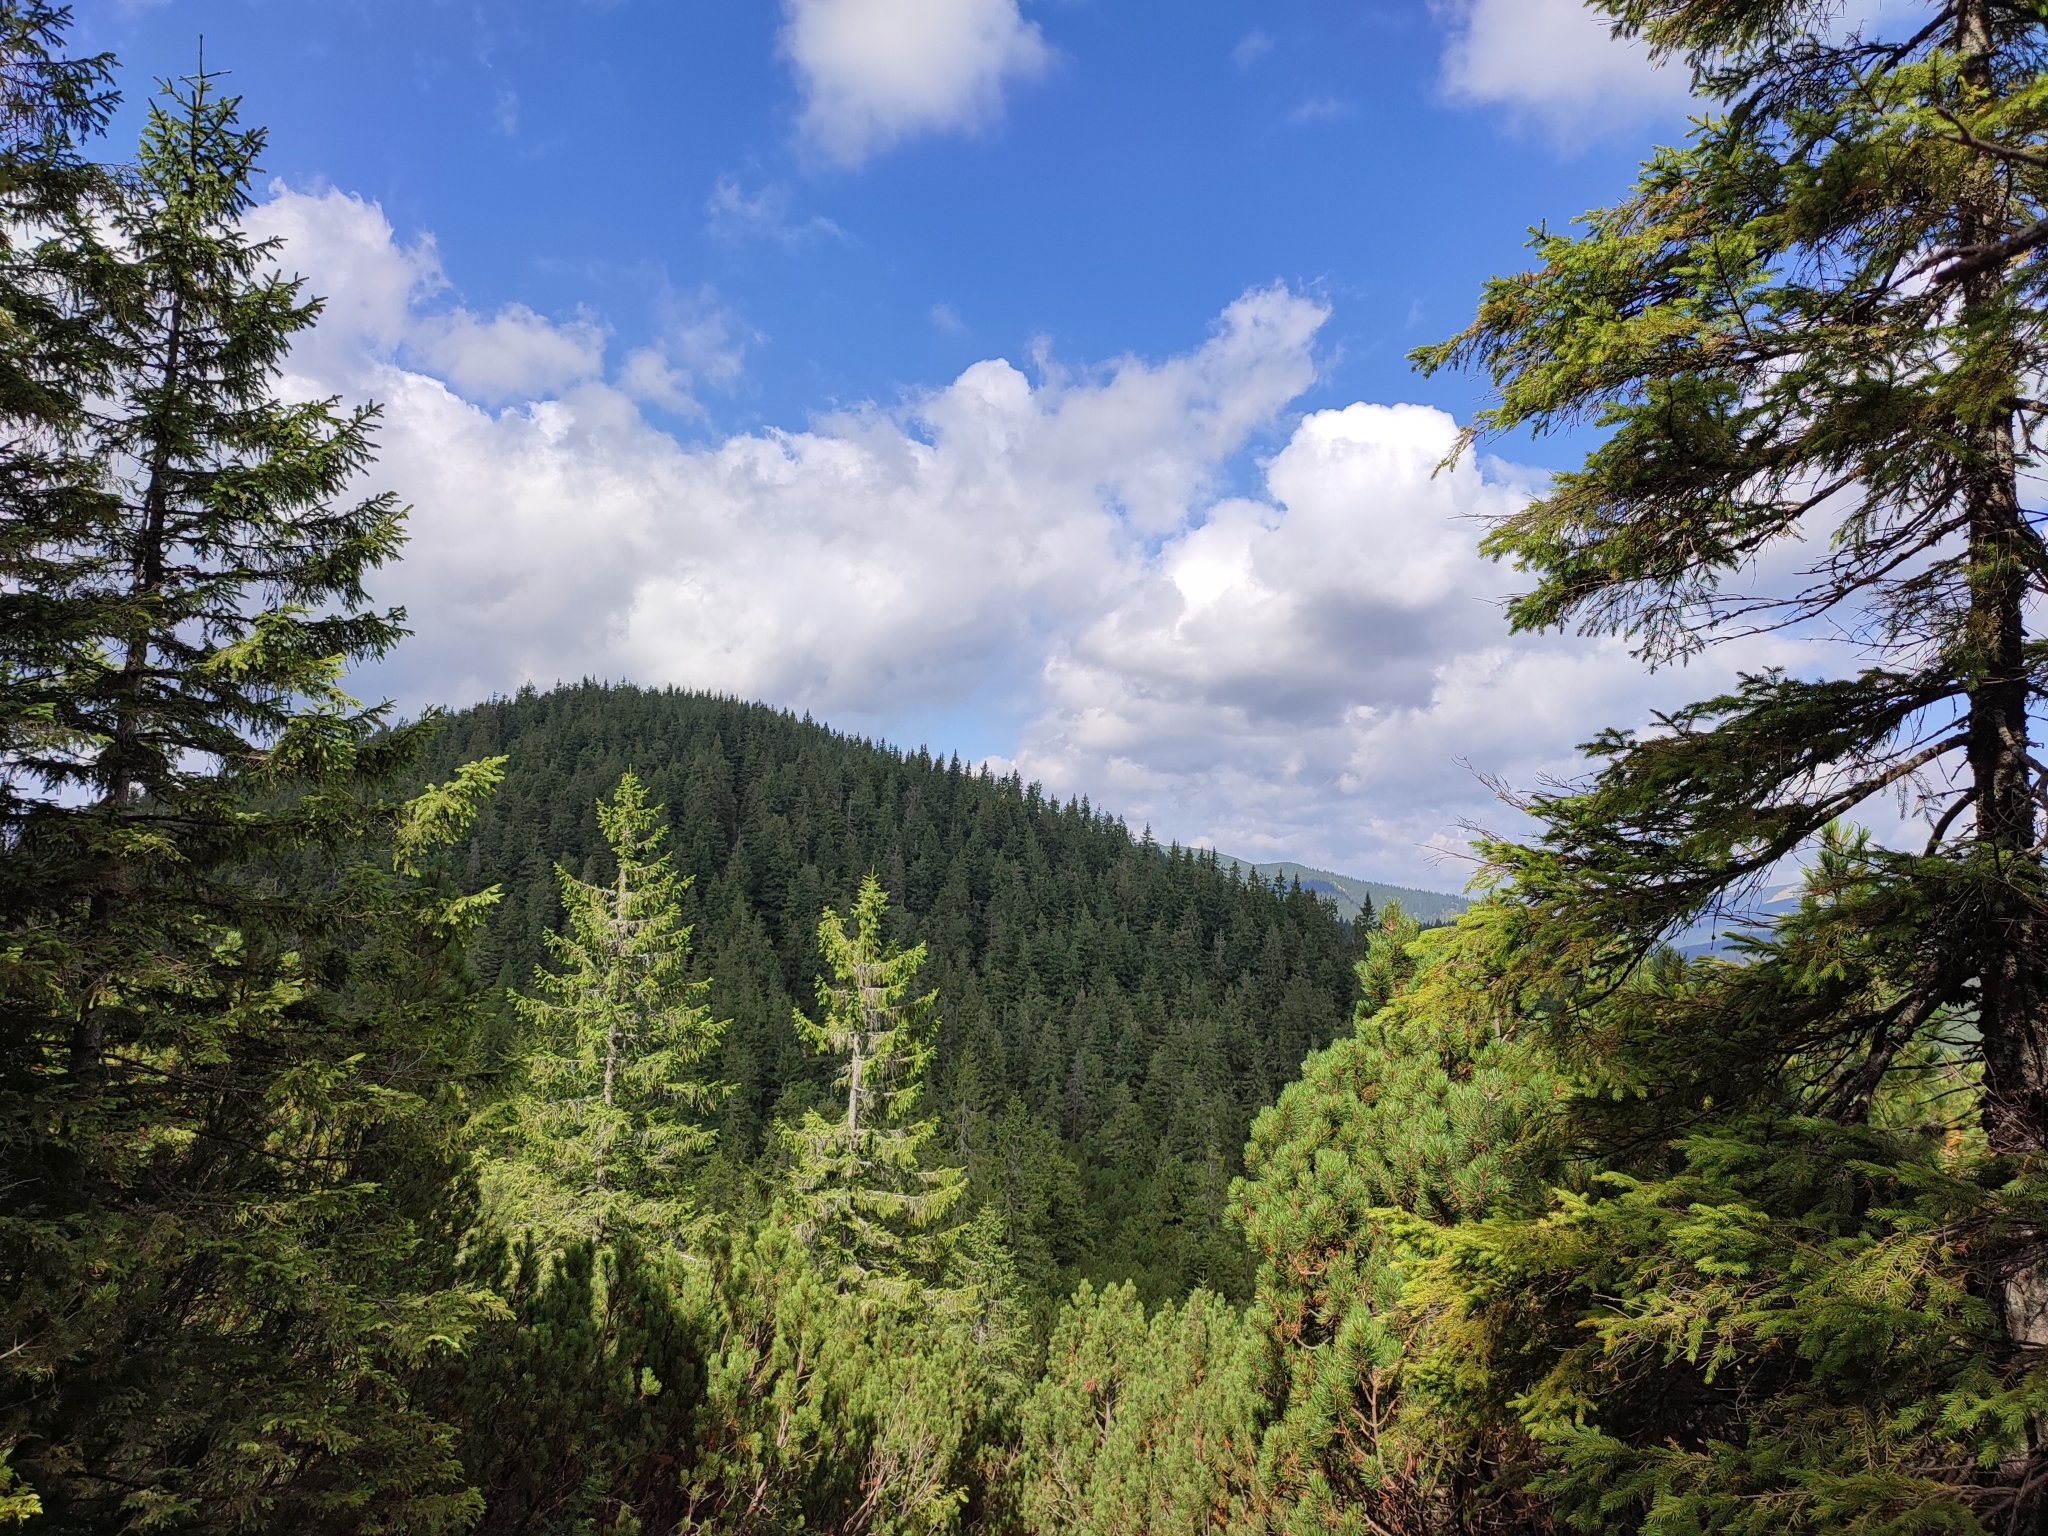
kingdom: Plantae
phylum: Tracheophyta
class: Pinopsida
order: Pinales
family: Pinaceae
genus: Picea
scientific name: Picea abies
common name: Norway spruce
